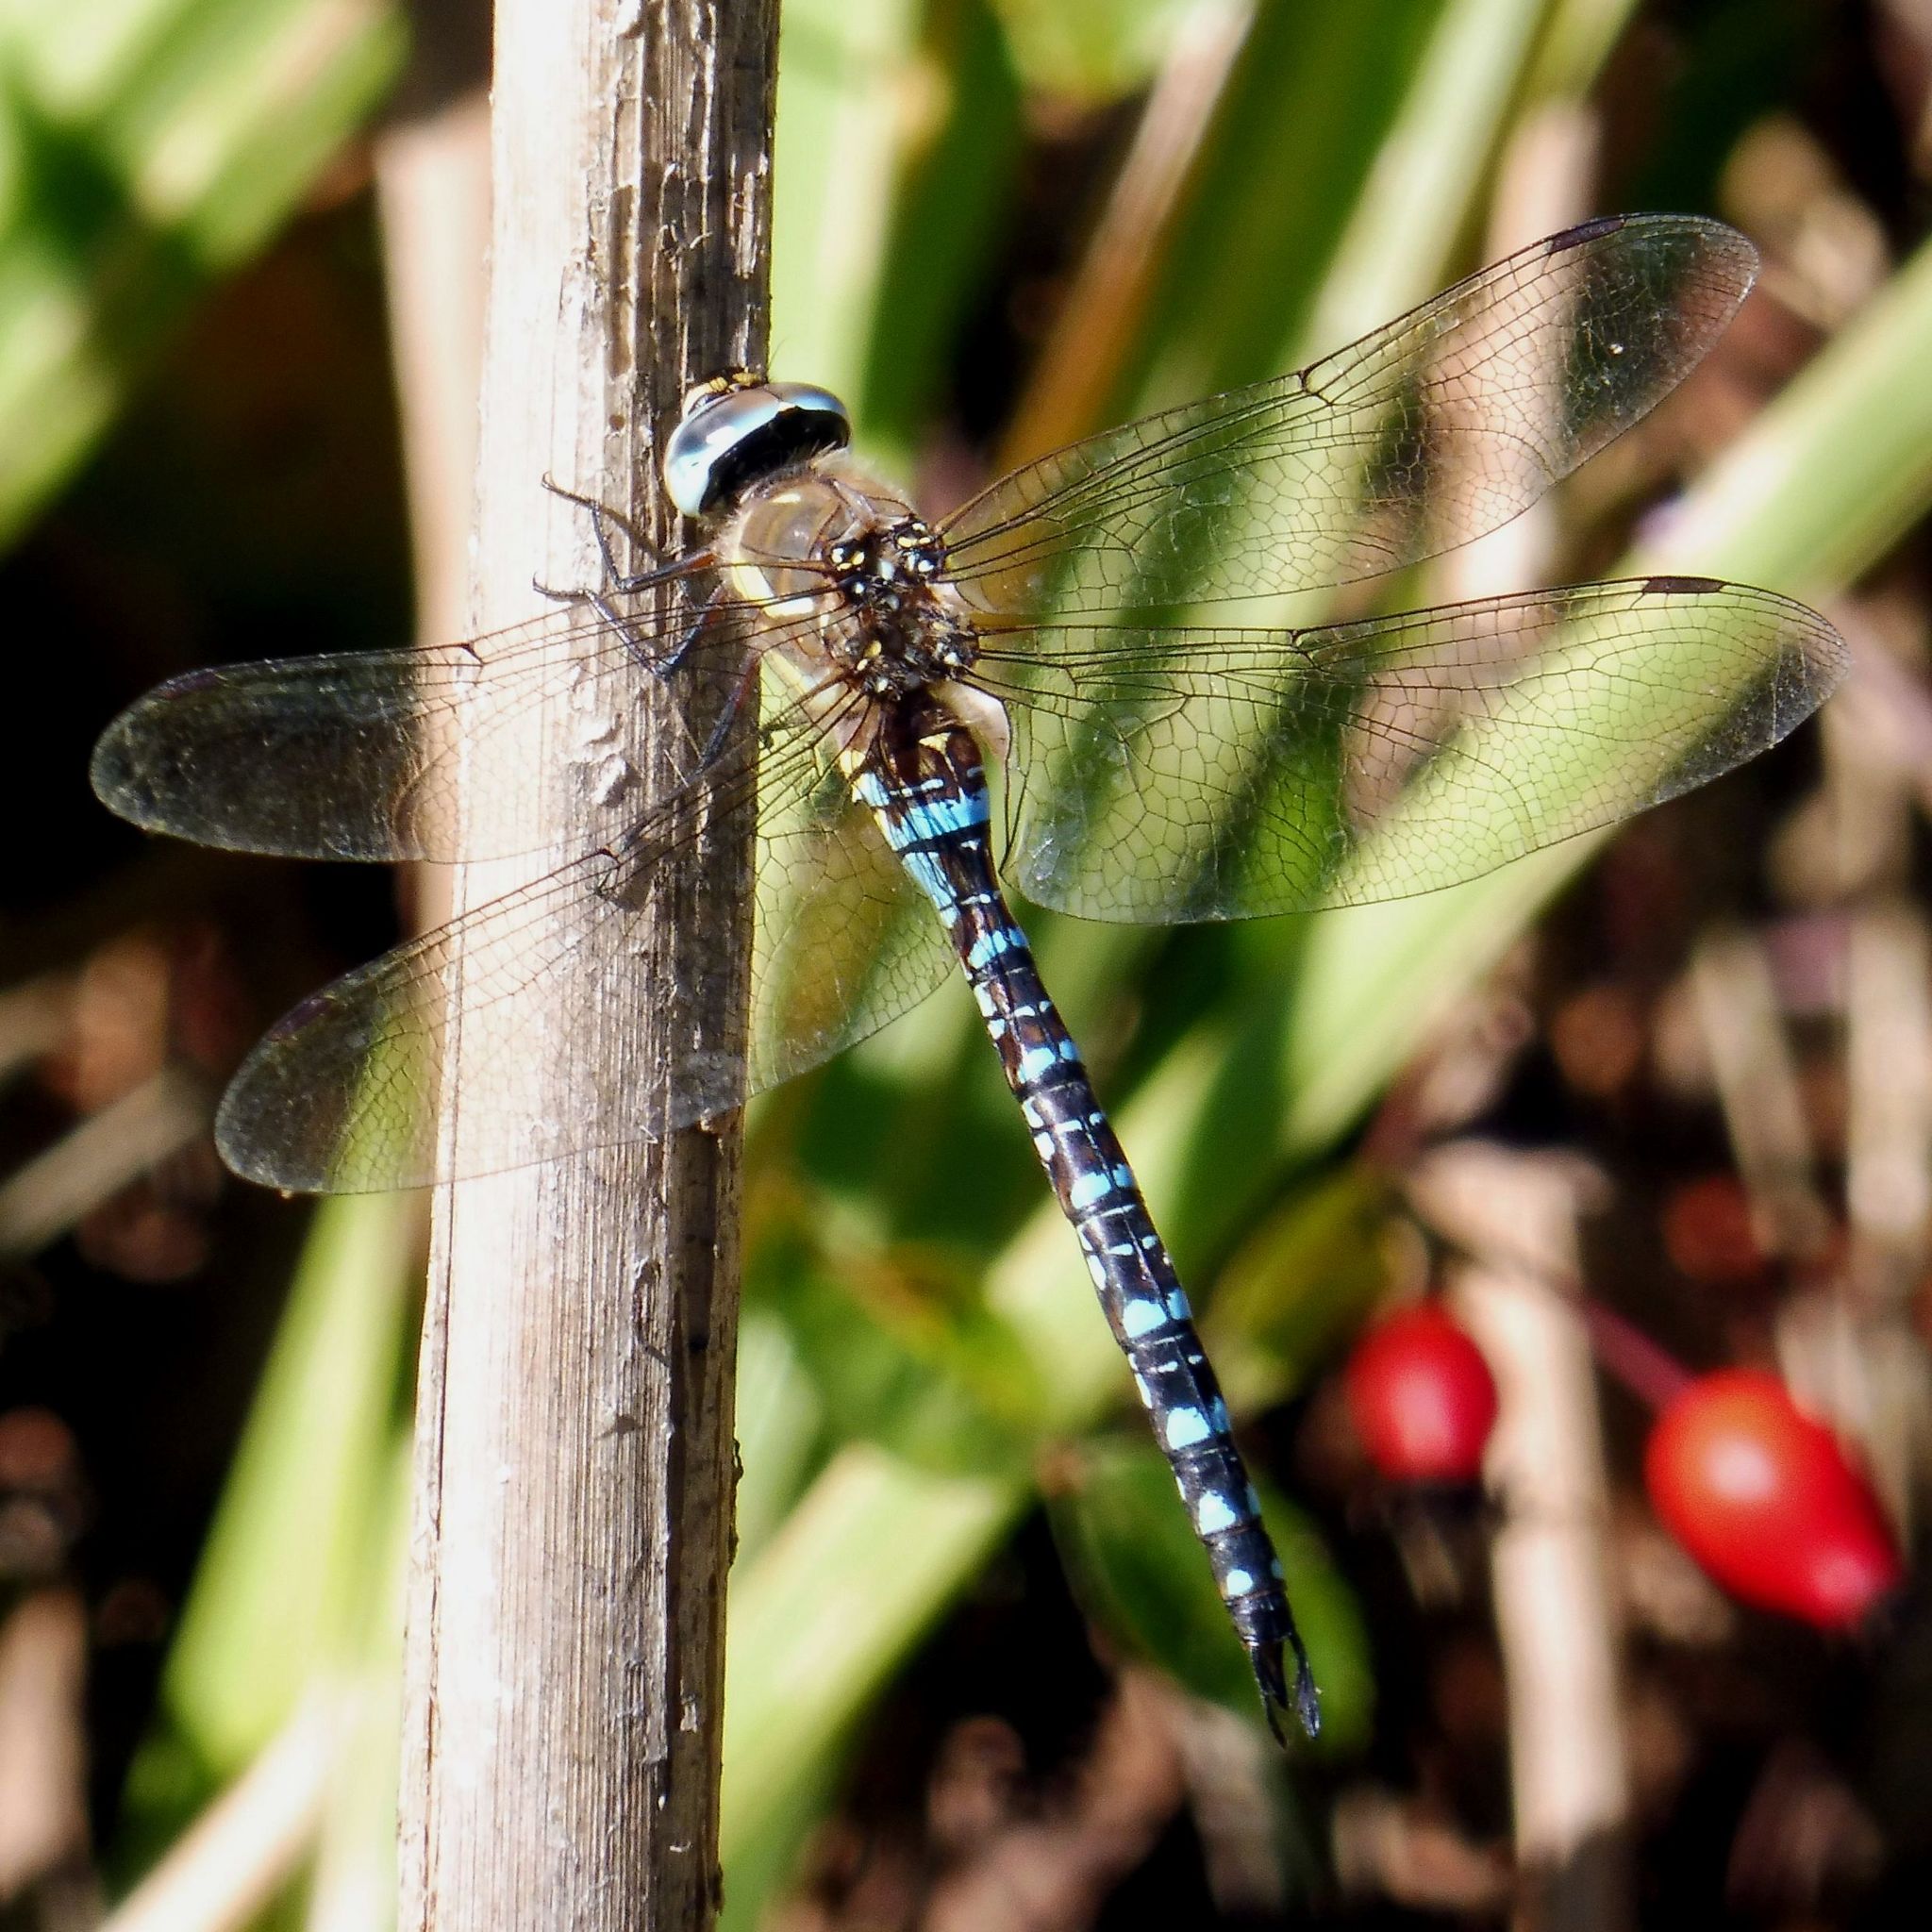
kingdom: Animalia
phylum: Arthropoda
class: Insecta
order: Odonata
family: Aeshnidae
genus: Aeshna
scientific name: Aeshna mixta
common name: Migrant hawker
